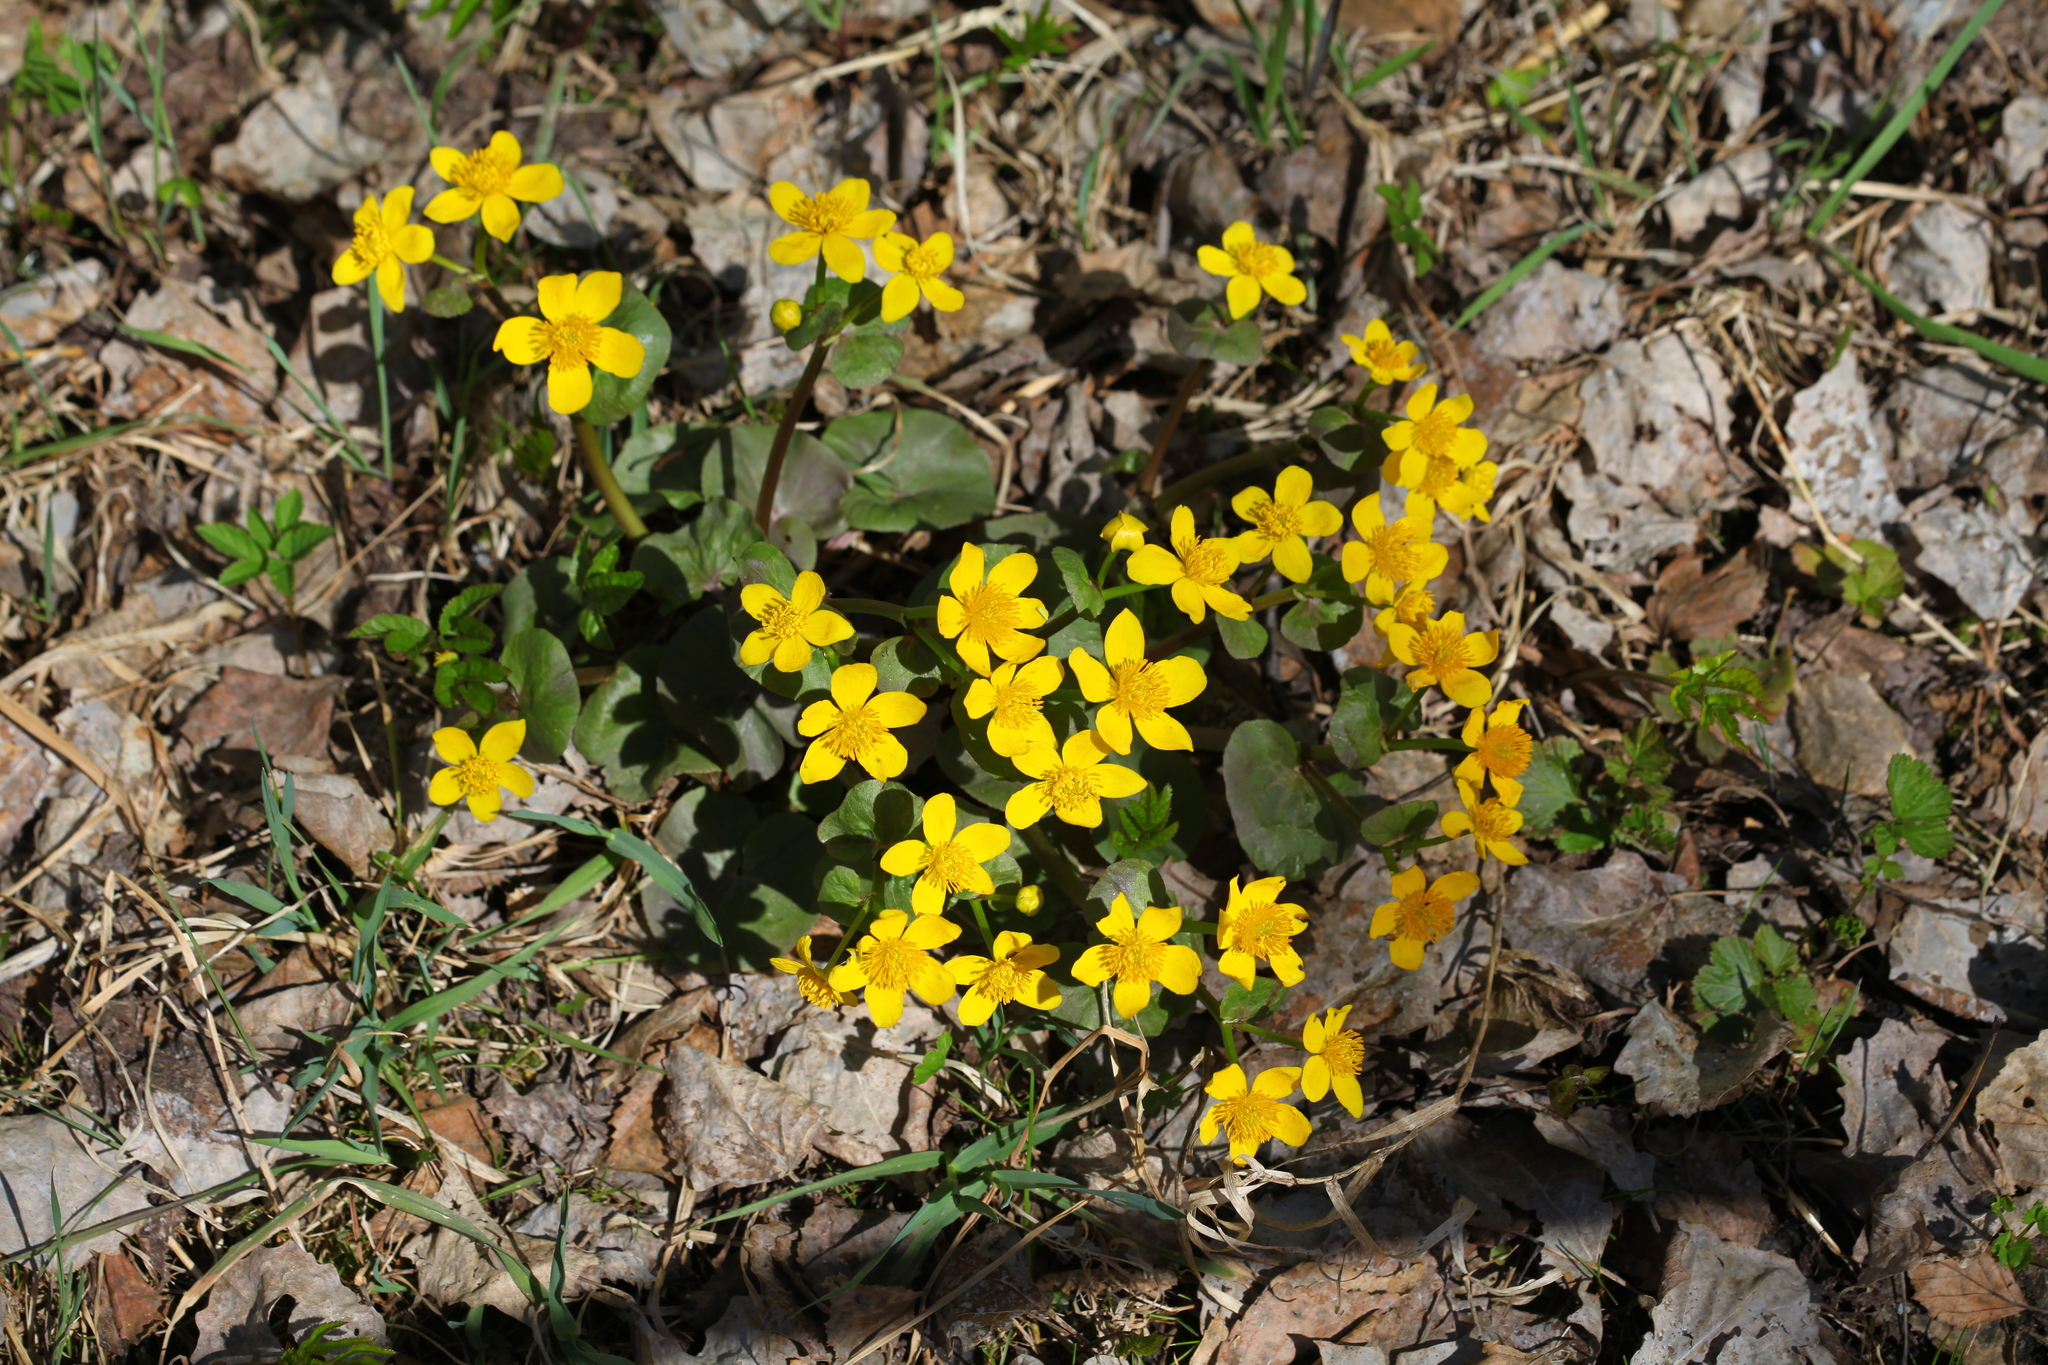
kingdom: Plantae
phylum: Tracheophyta
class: Magnoliopsida
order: Ranunculales
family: Ranunculaceae
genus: Caltha
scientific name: Caltha palustris
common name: Marsh marigold
